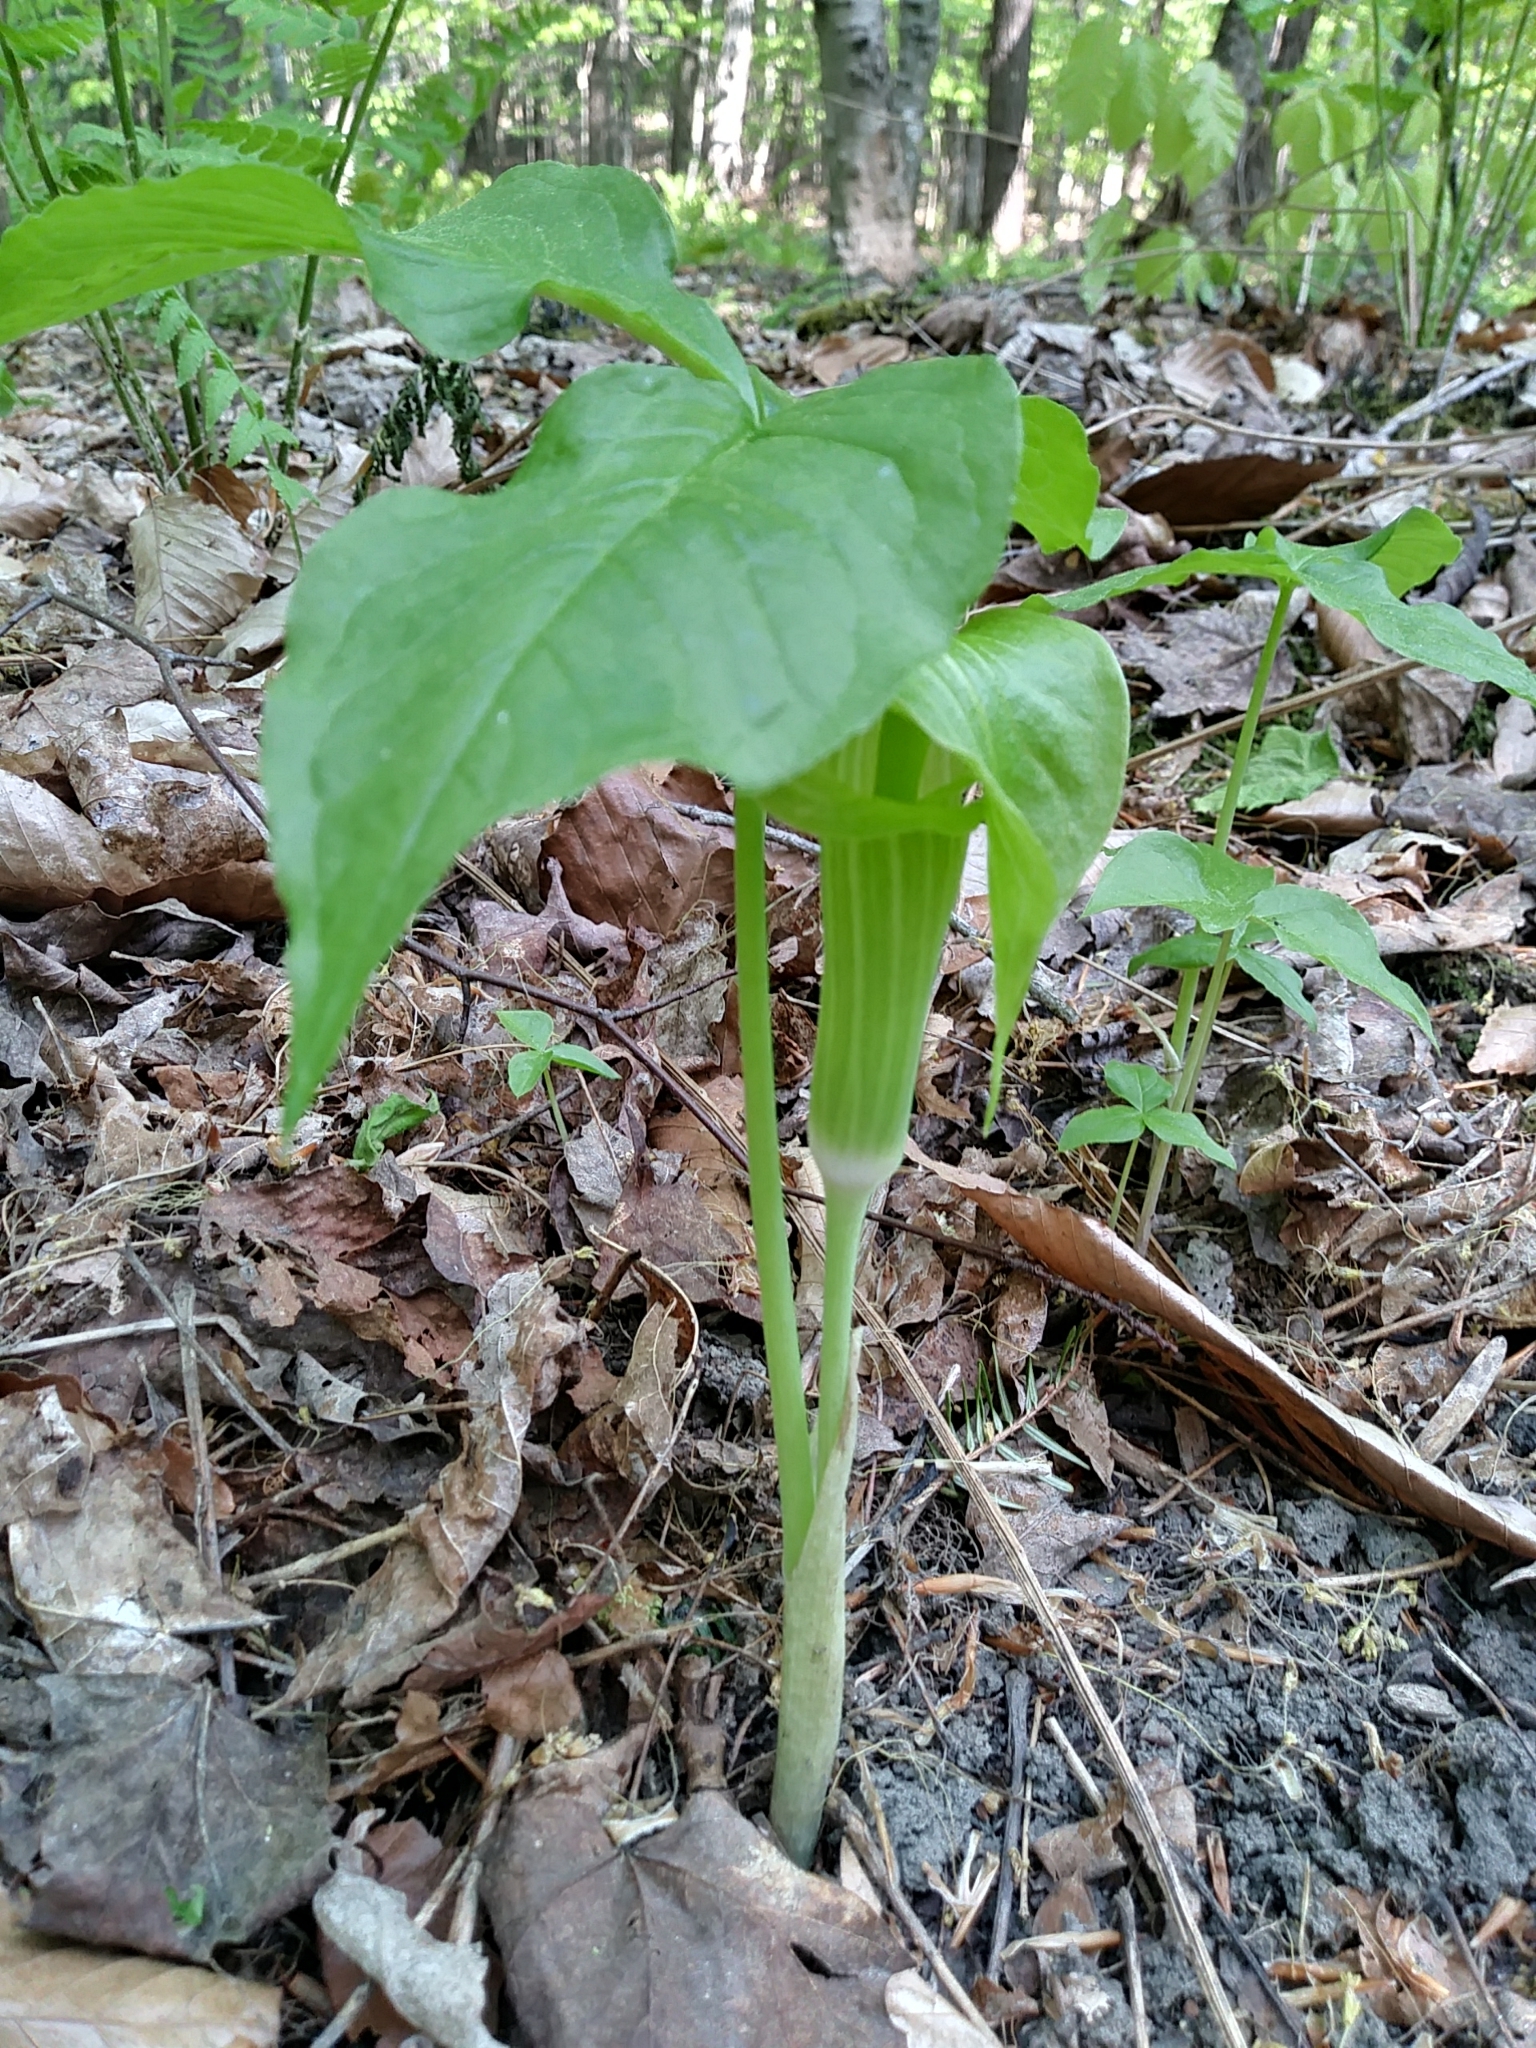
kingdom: Plantae
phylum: Tracheophyta
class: Liliopsida
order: Alismatales
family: Araceae
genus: Arisaema
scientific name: Arisaema triphyllum
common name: Jack-in-the-pulpit
